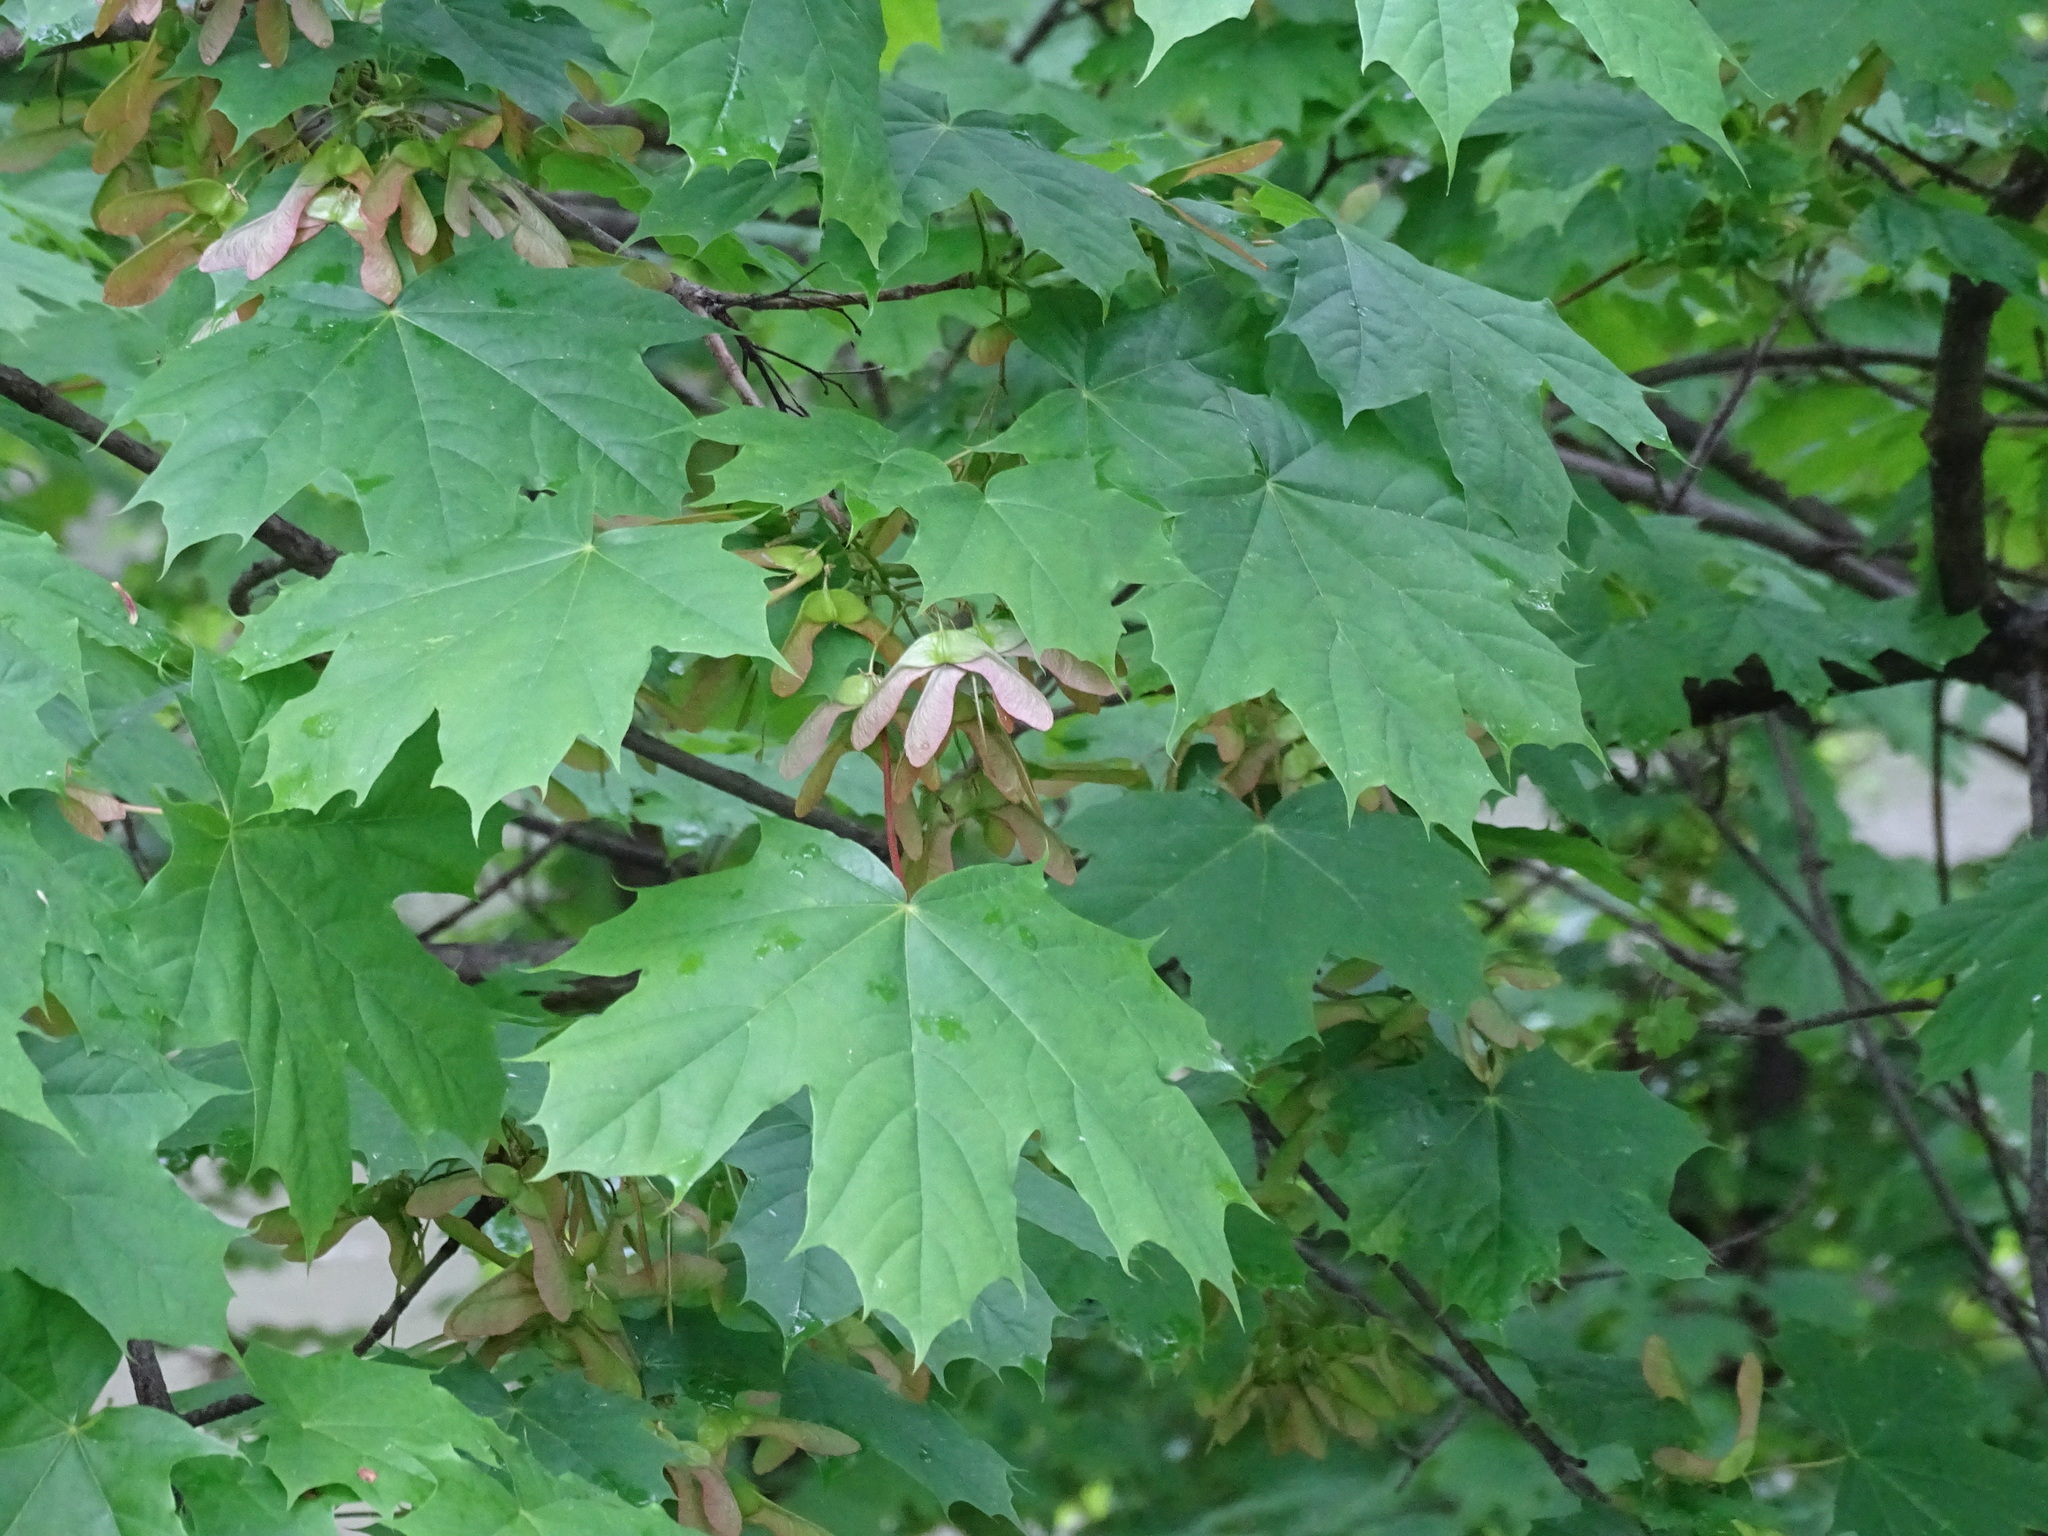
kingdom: Plantae
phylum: Tracheophyta
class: Magnoliopsida
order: Sapindales
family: Sapindaceae
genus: Acer
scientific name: Acer platanoides
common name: Norway maple
